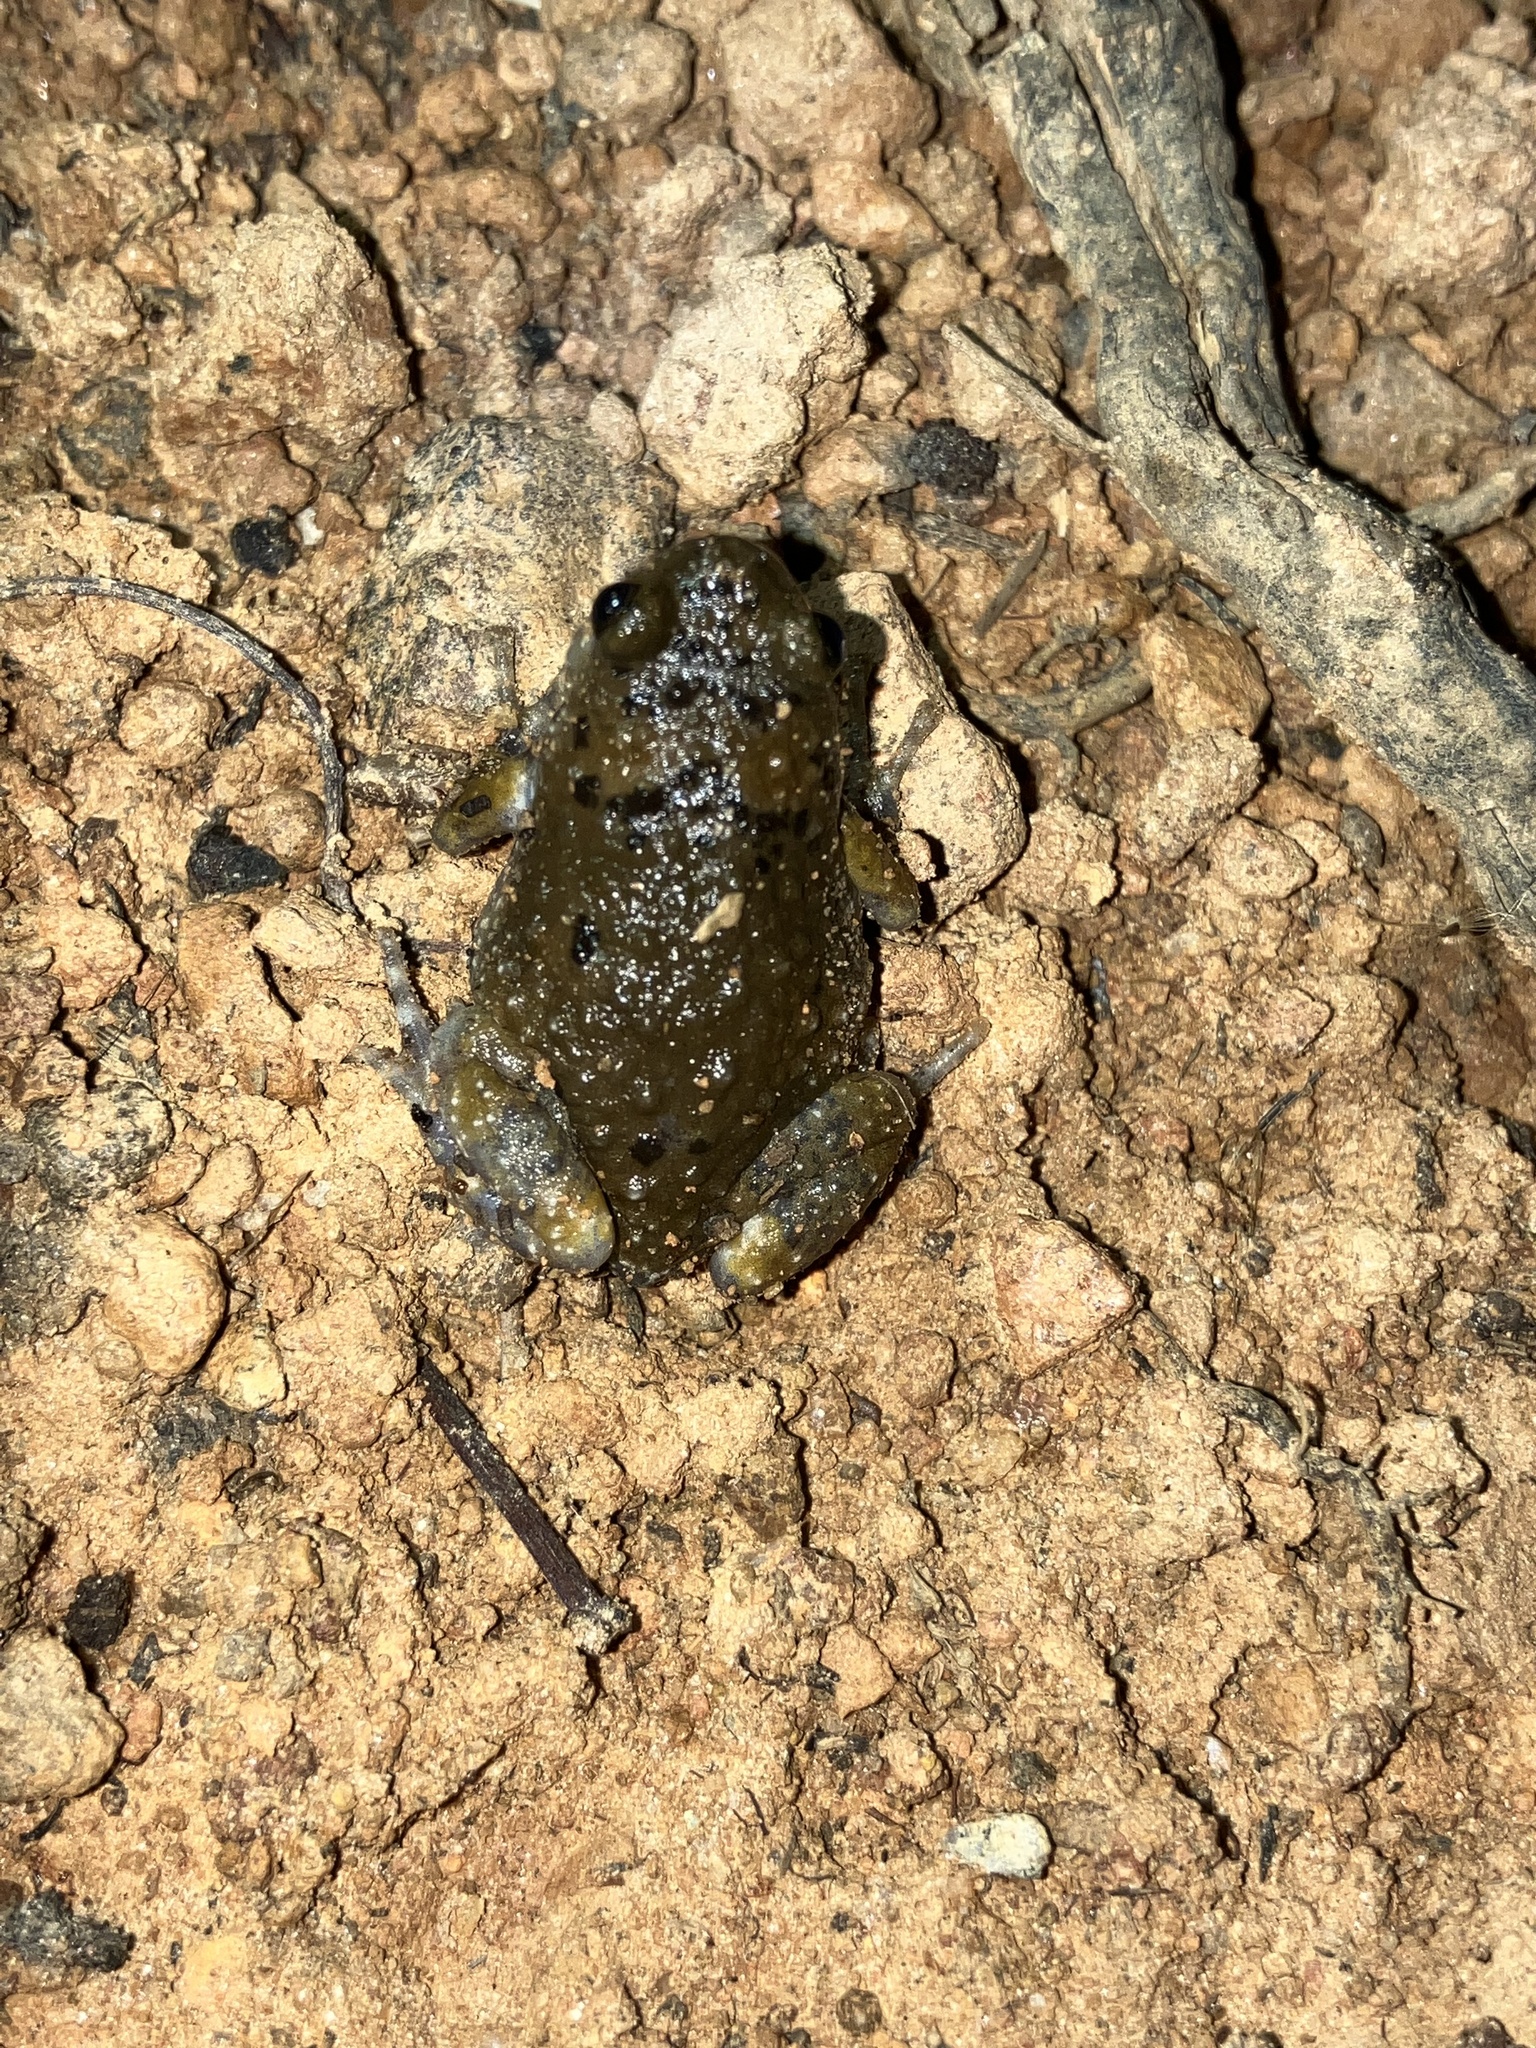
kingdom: Animalia
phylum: Chordata
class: Amphibia
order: Anura
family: Microhylidae
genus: Uperodon
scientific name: Uperodon mormoratus
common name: Indian dot frog
